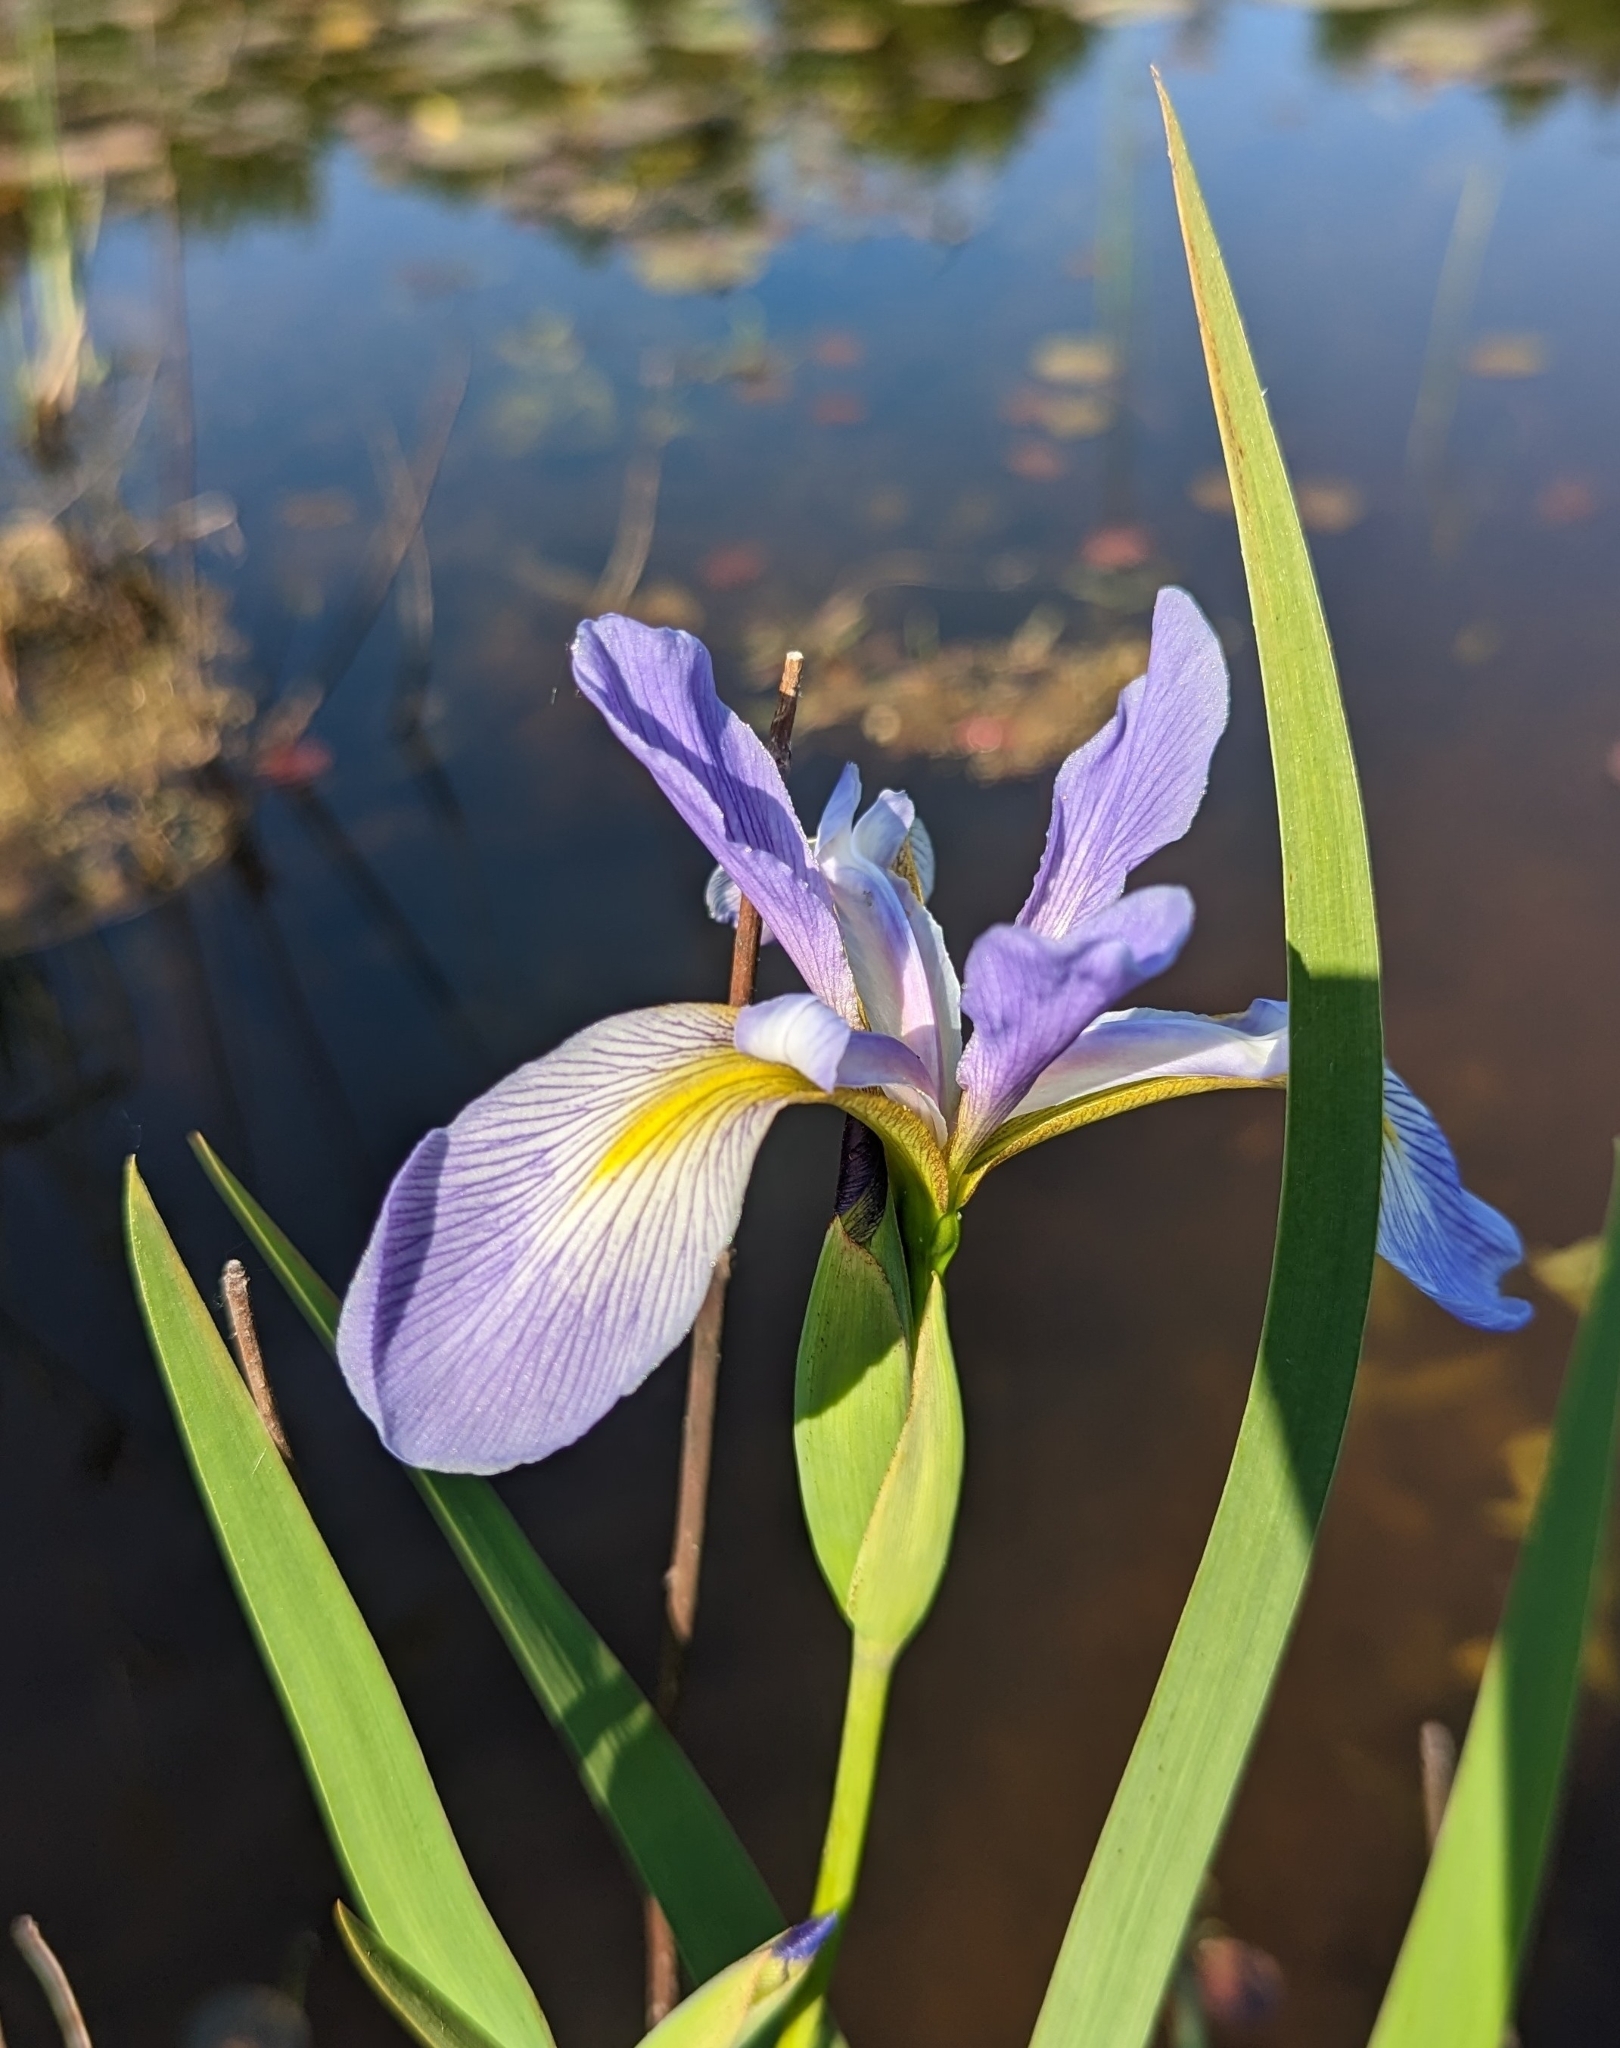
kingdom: Plantae
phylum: Tracheophyta
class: Liliopsida
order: Asparagales
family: Iridaceae
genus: Iris
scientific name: Iris virginica
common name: Southern blue flag
